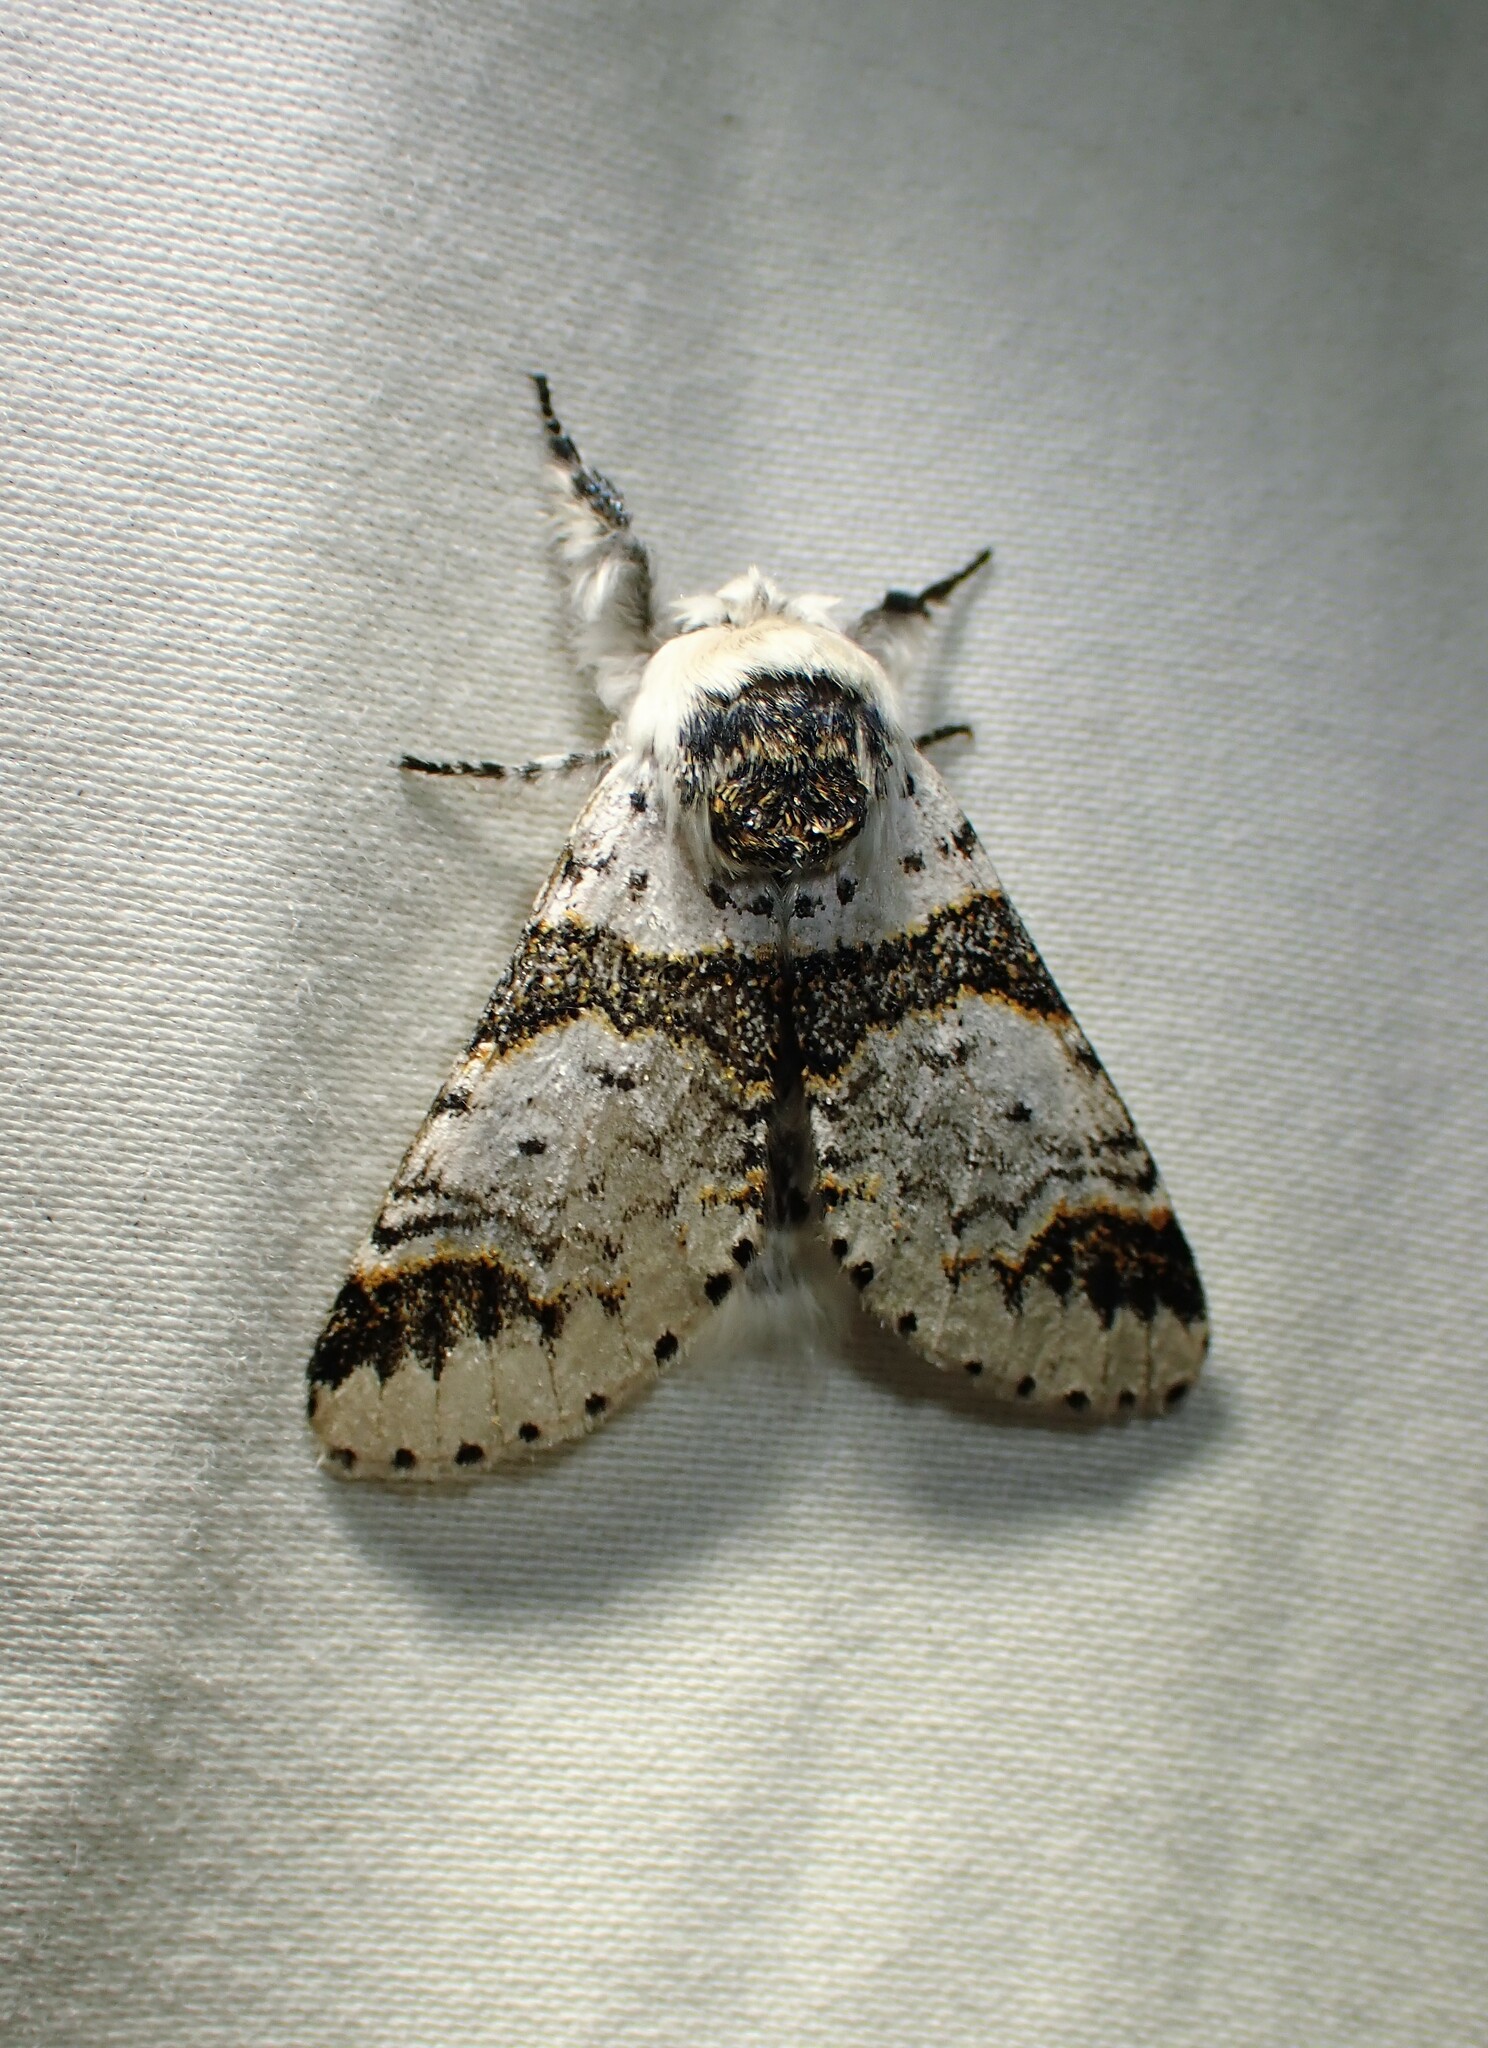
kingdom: Animalia
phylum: Arthropoda
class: Insecta
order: Lepidoptera
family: Notodontidae
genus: Furcula
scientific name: Furcula scolopendrina
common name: Zigzag furcula moth
